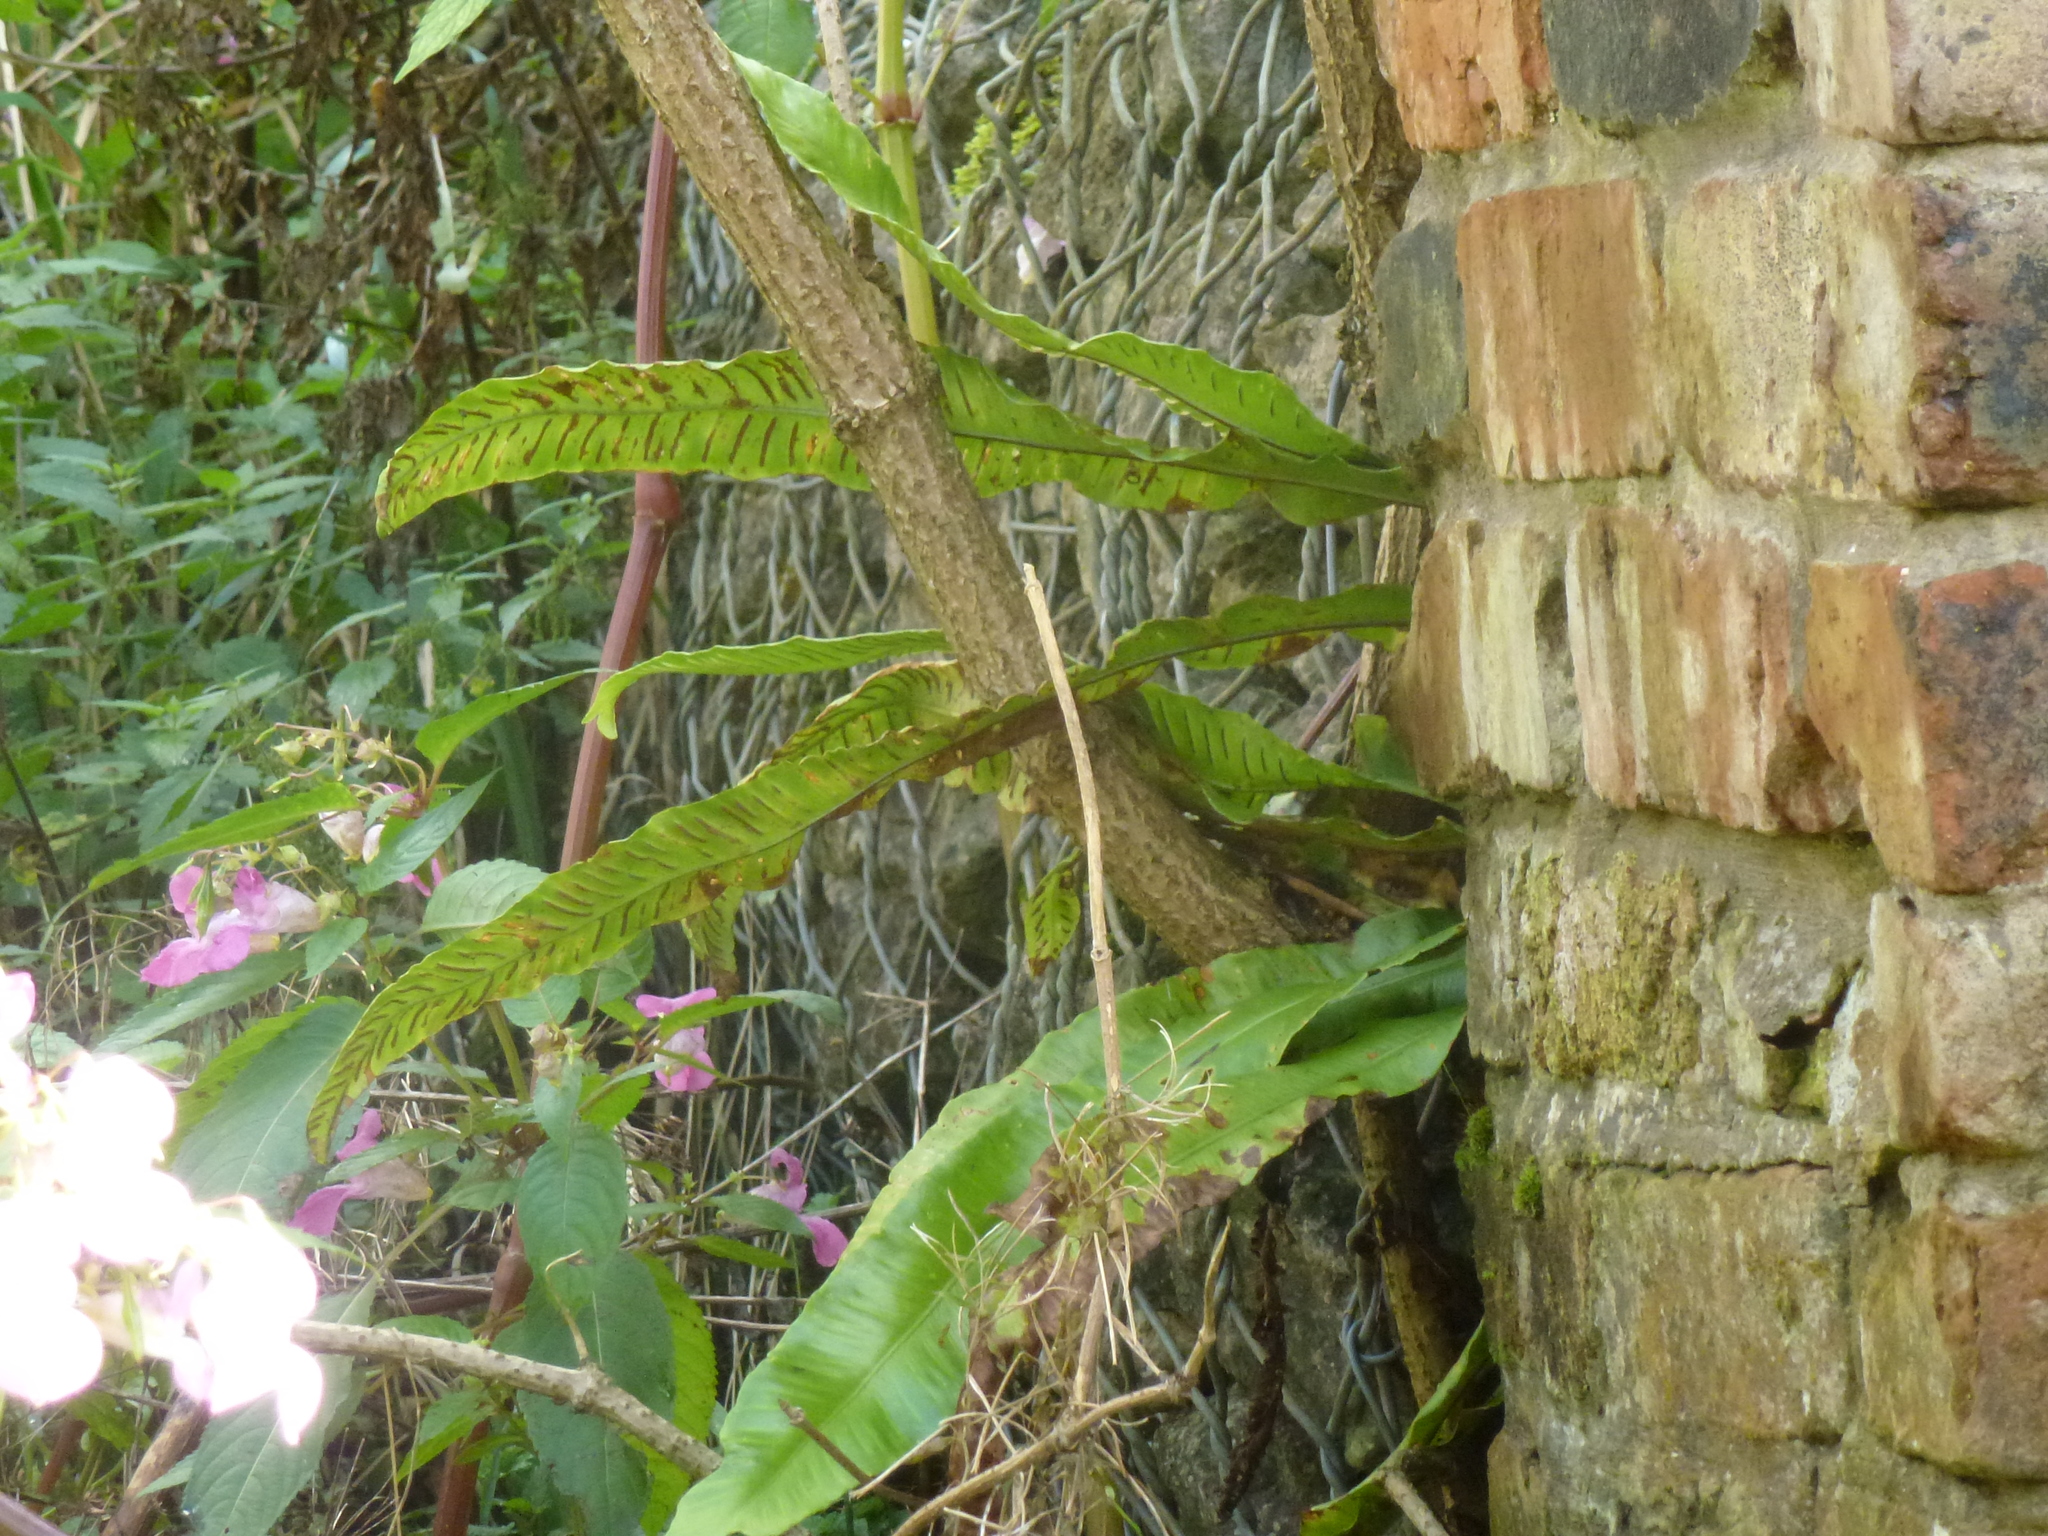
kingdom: Plantae
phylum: Tracheophyta
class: Polypodiopsida
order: Polypodiales
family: Aspleniaceae
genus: Asplenium
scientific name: Asplenium scolopendrium
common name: Hart's-tongue fern
